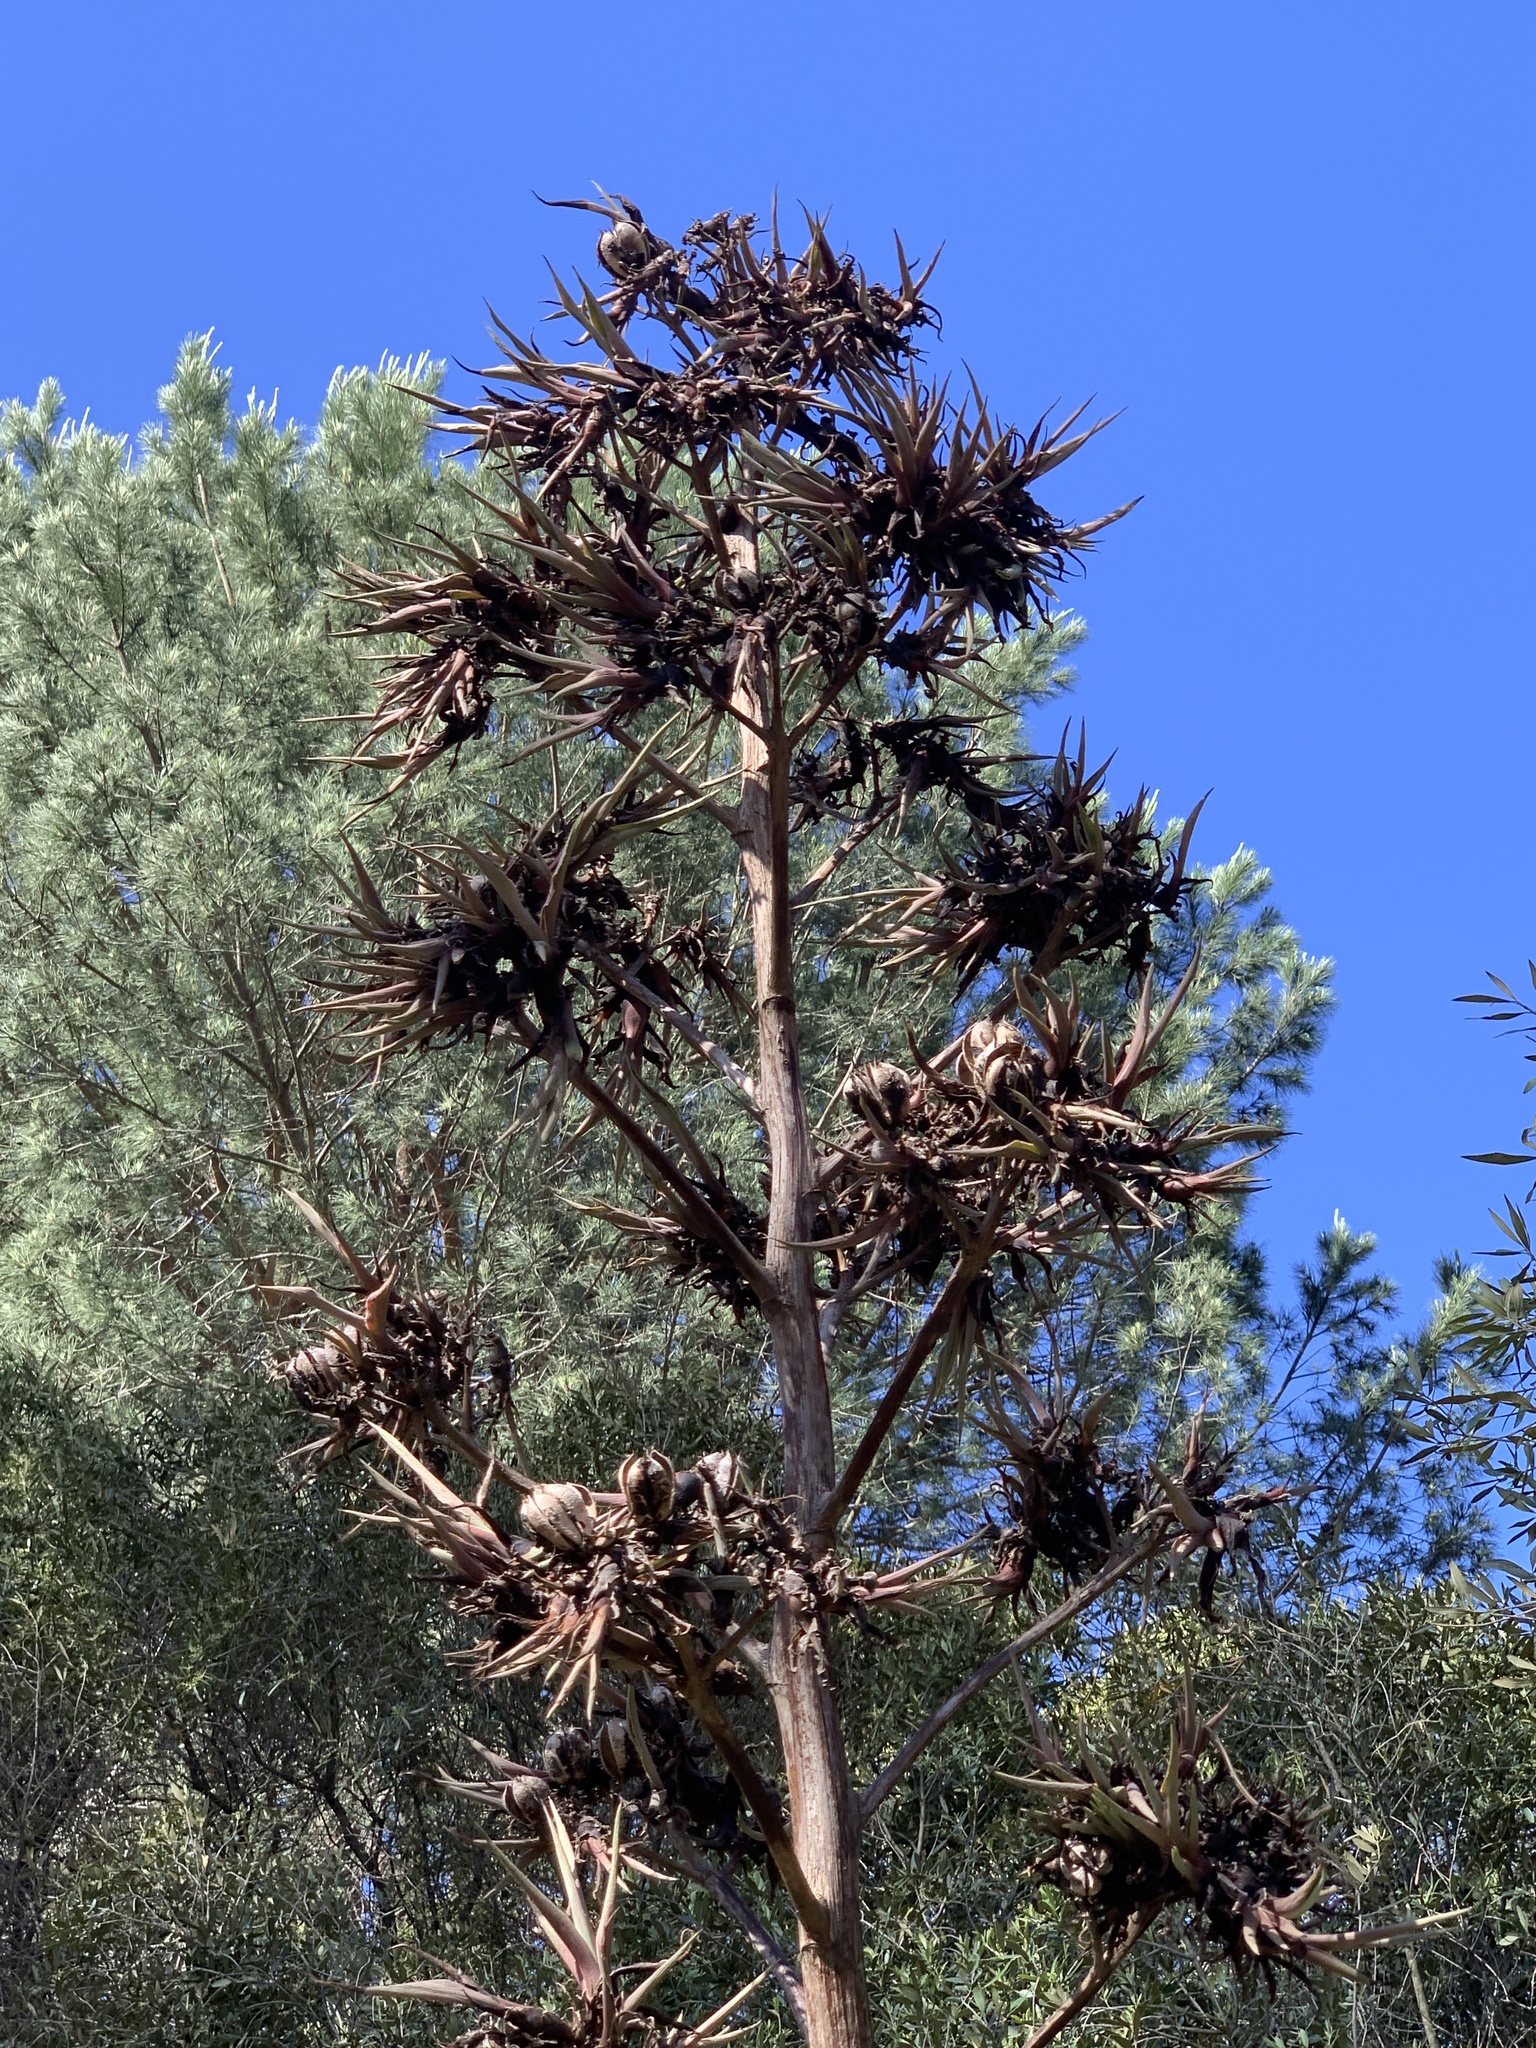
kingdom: Plantae
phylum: Tracheophyta
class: Liliopsida
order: Asparagales
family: Asparagaceae
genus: Agave
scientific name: Agave angustifolia
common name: Mescal agave
